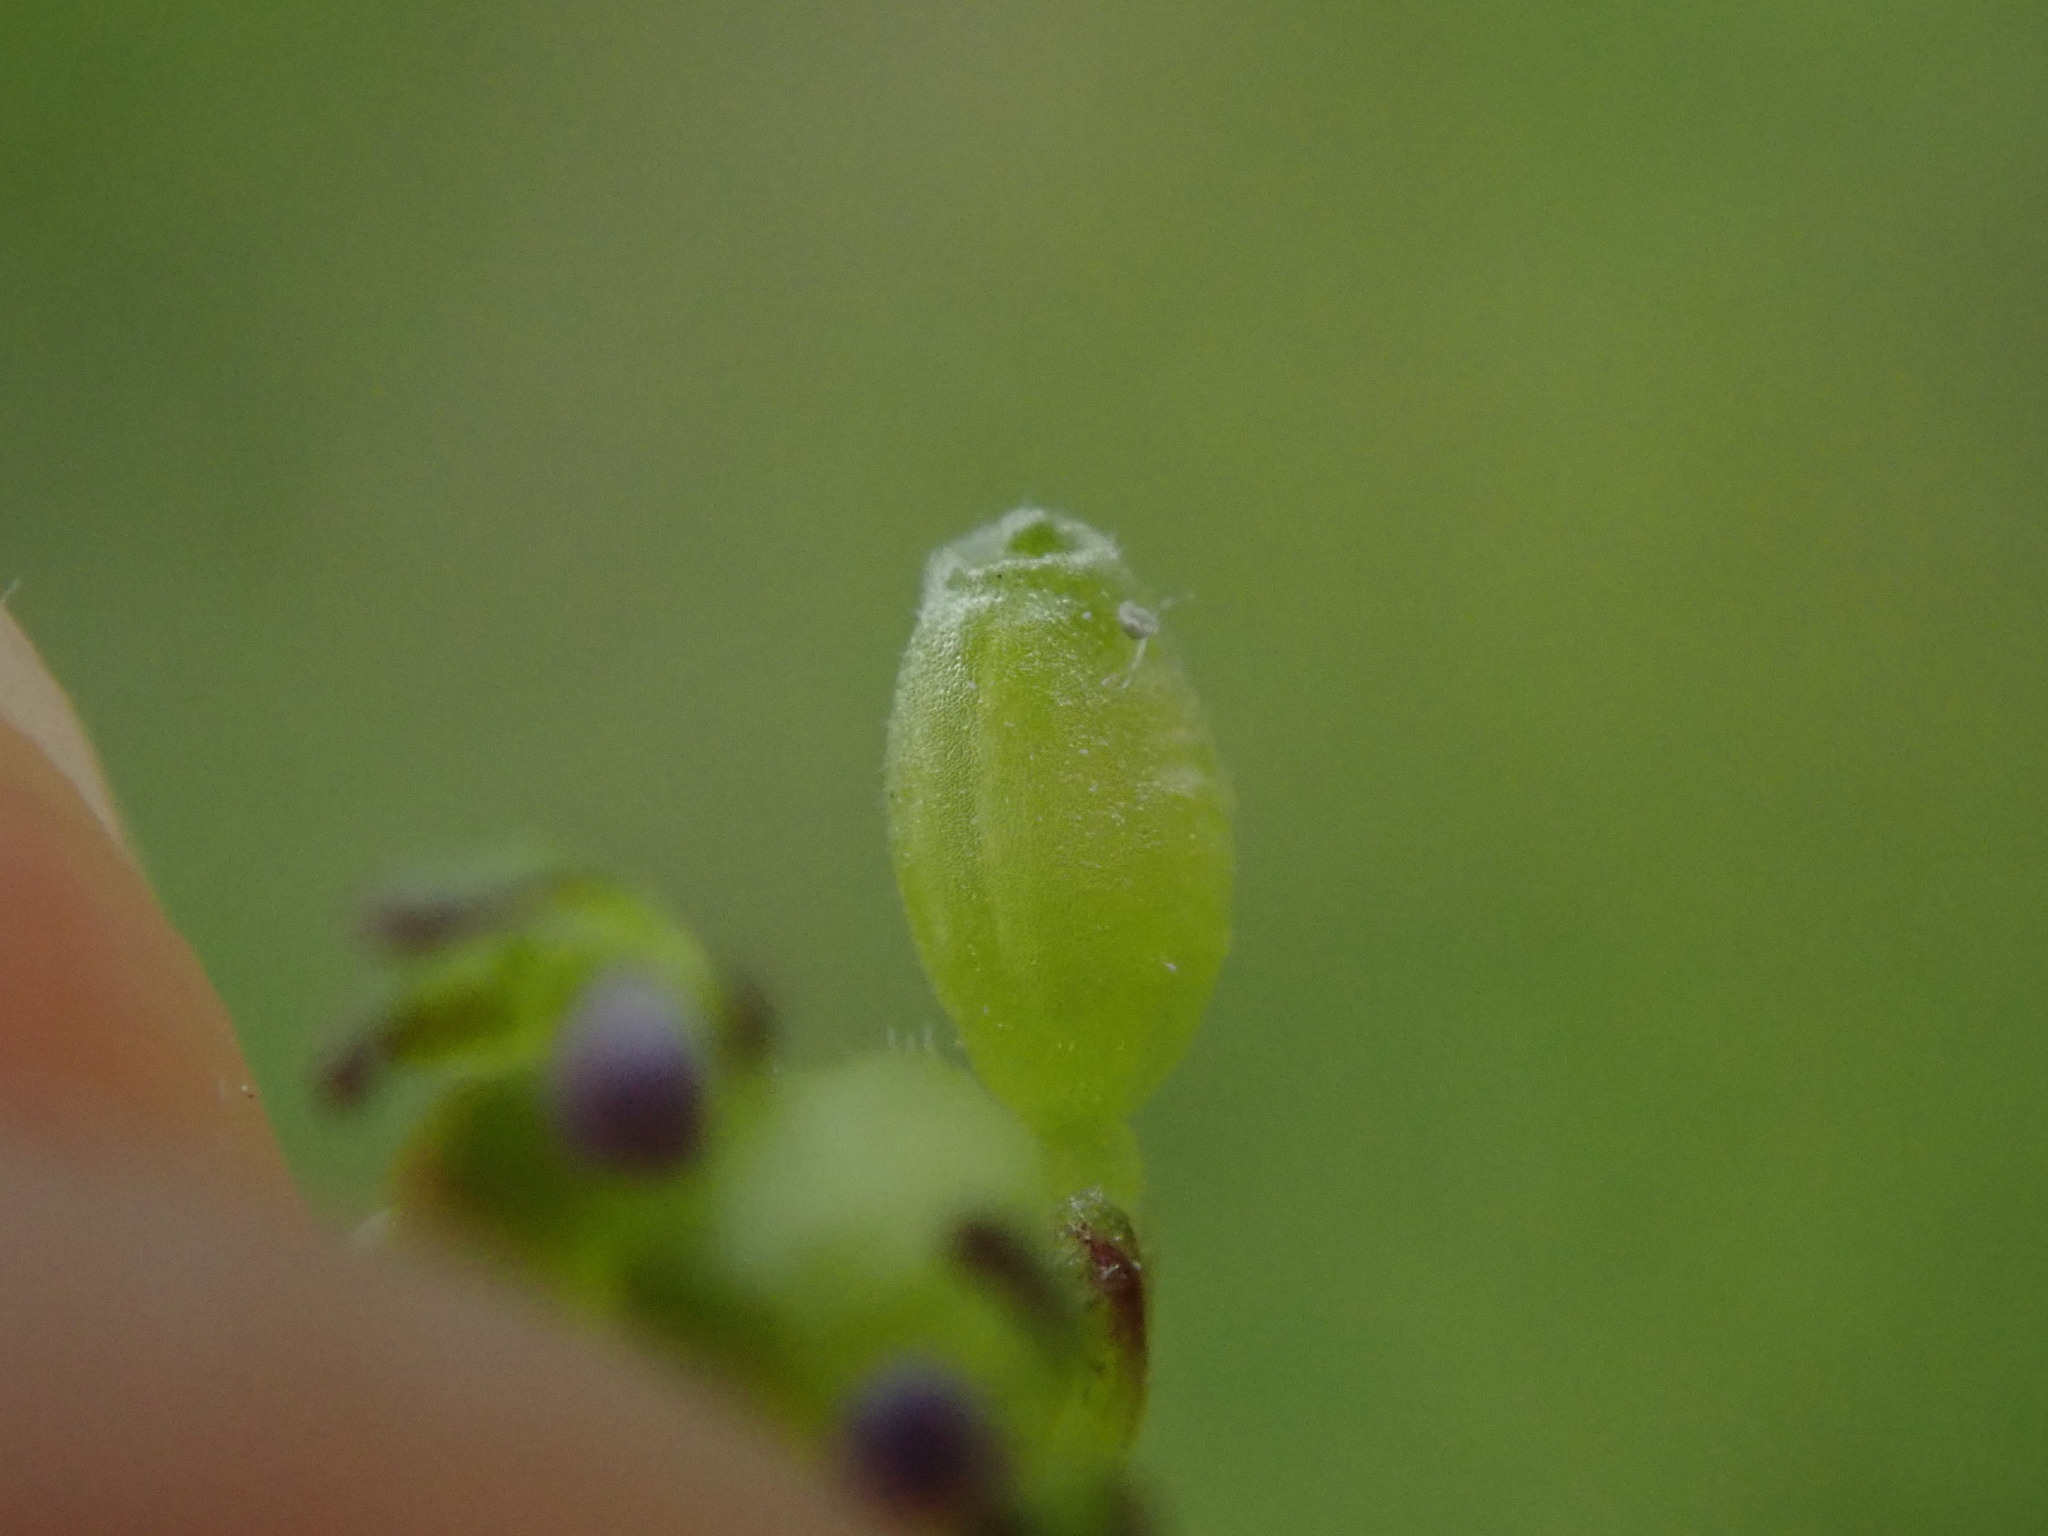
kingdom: Plantae
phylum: Tracheophyta
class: Magnoliopsida
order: Dipsacales
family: Caprifoliaceae
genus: Valerianella
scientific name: Valerianella locusta
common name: Common cornsalad
